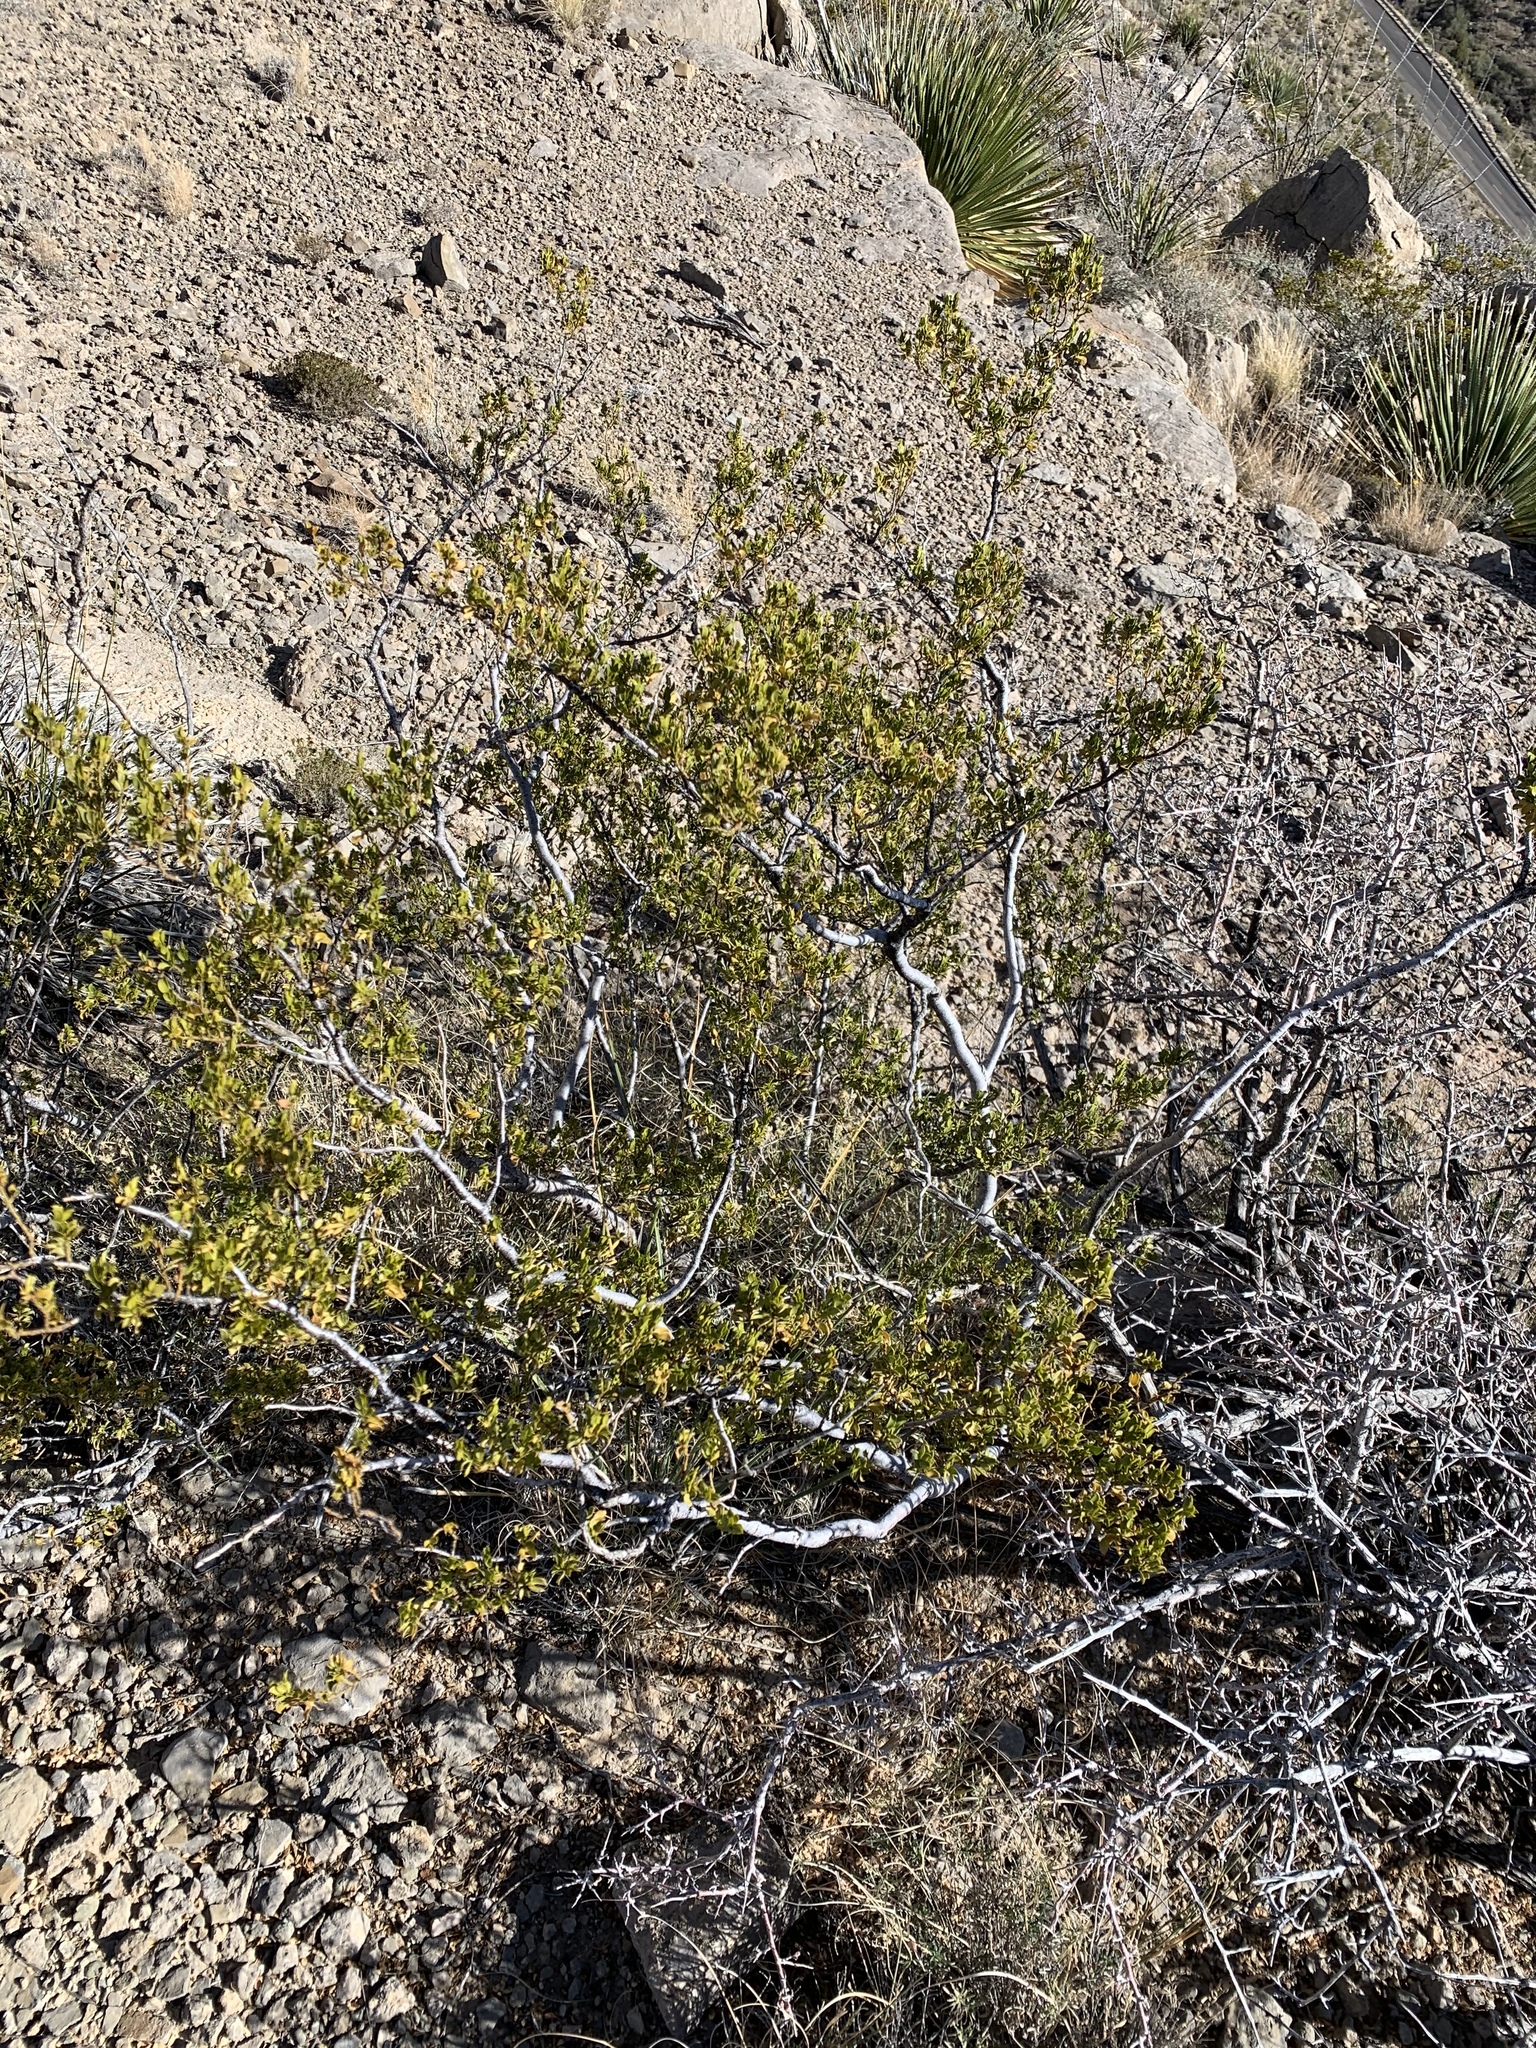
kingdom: Plantae
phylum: Tracheophyta
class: Magnoliopsida
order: Zygophyllales
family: Zygophyllaceae
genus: Larrea
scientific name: Larrea tridentata
